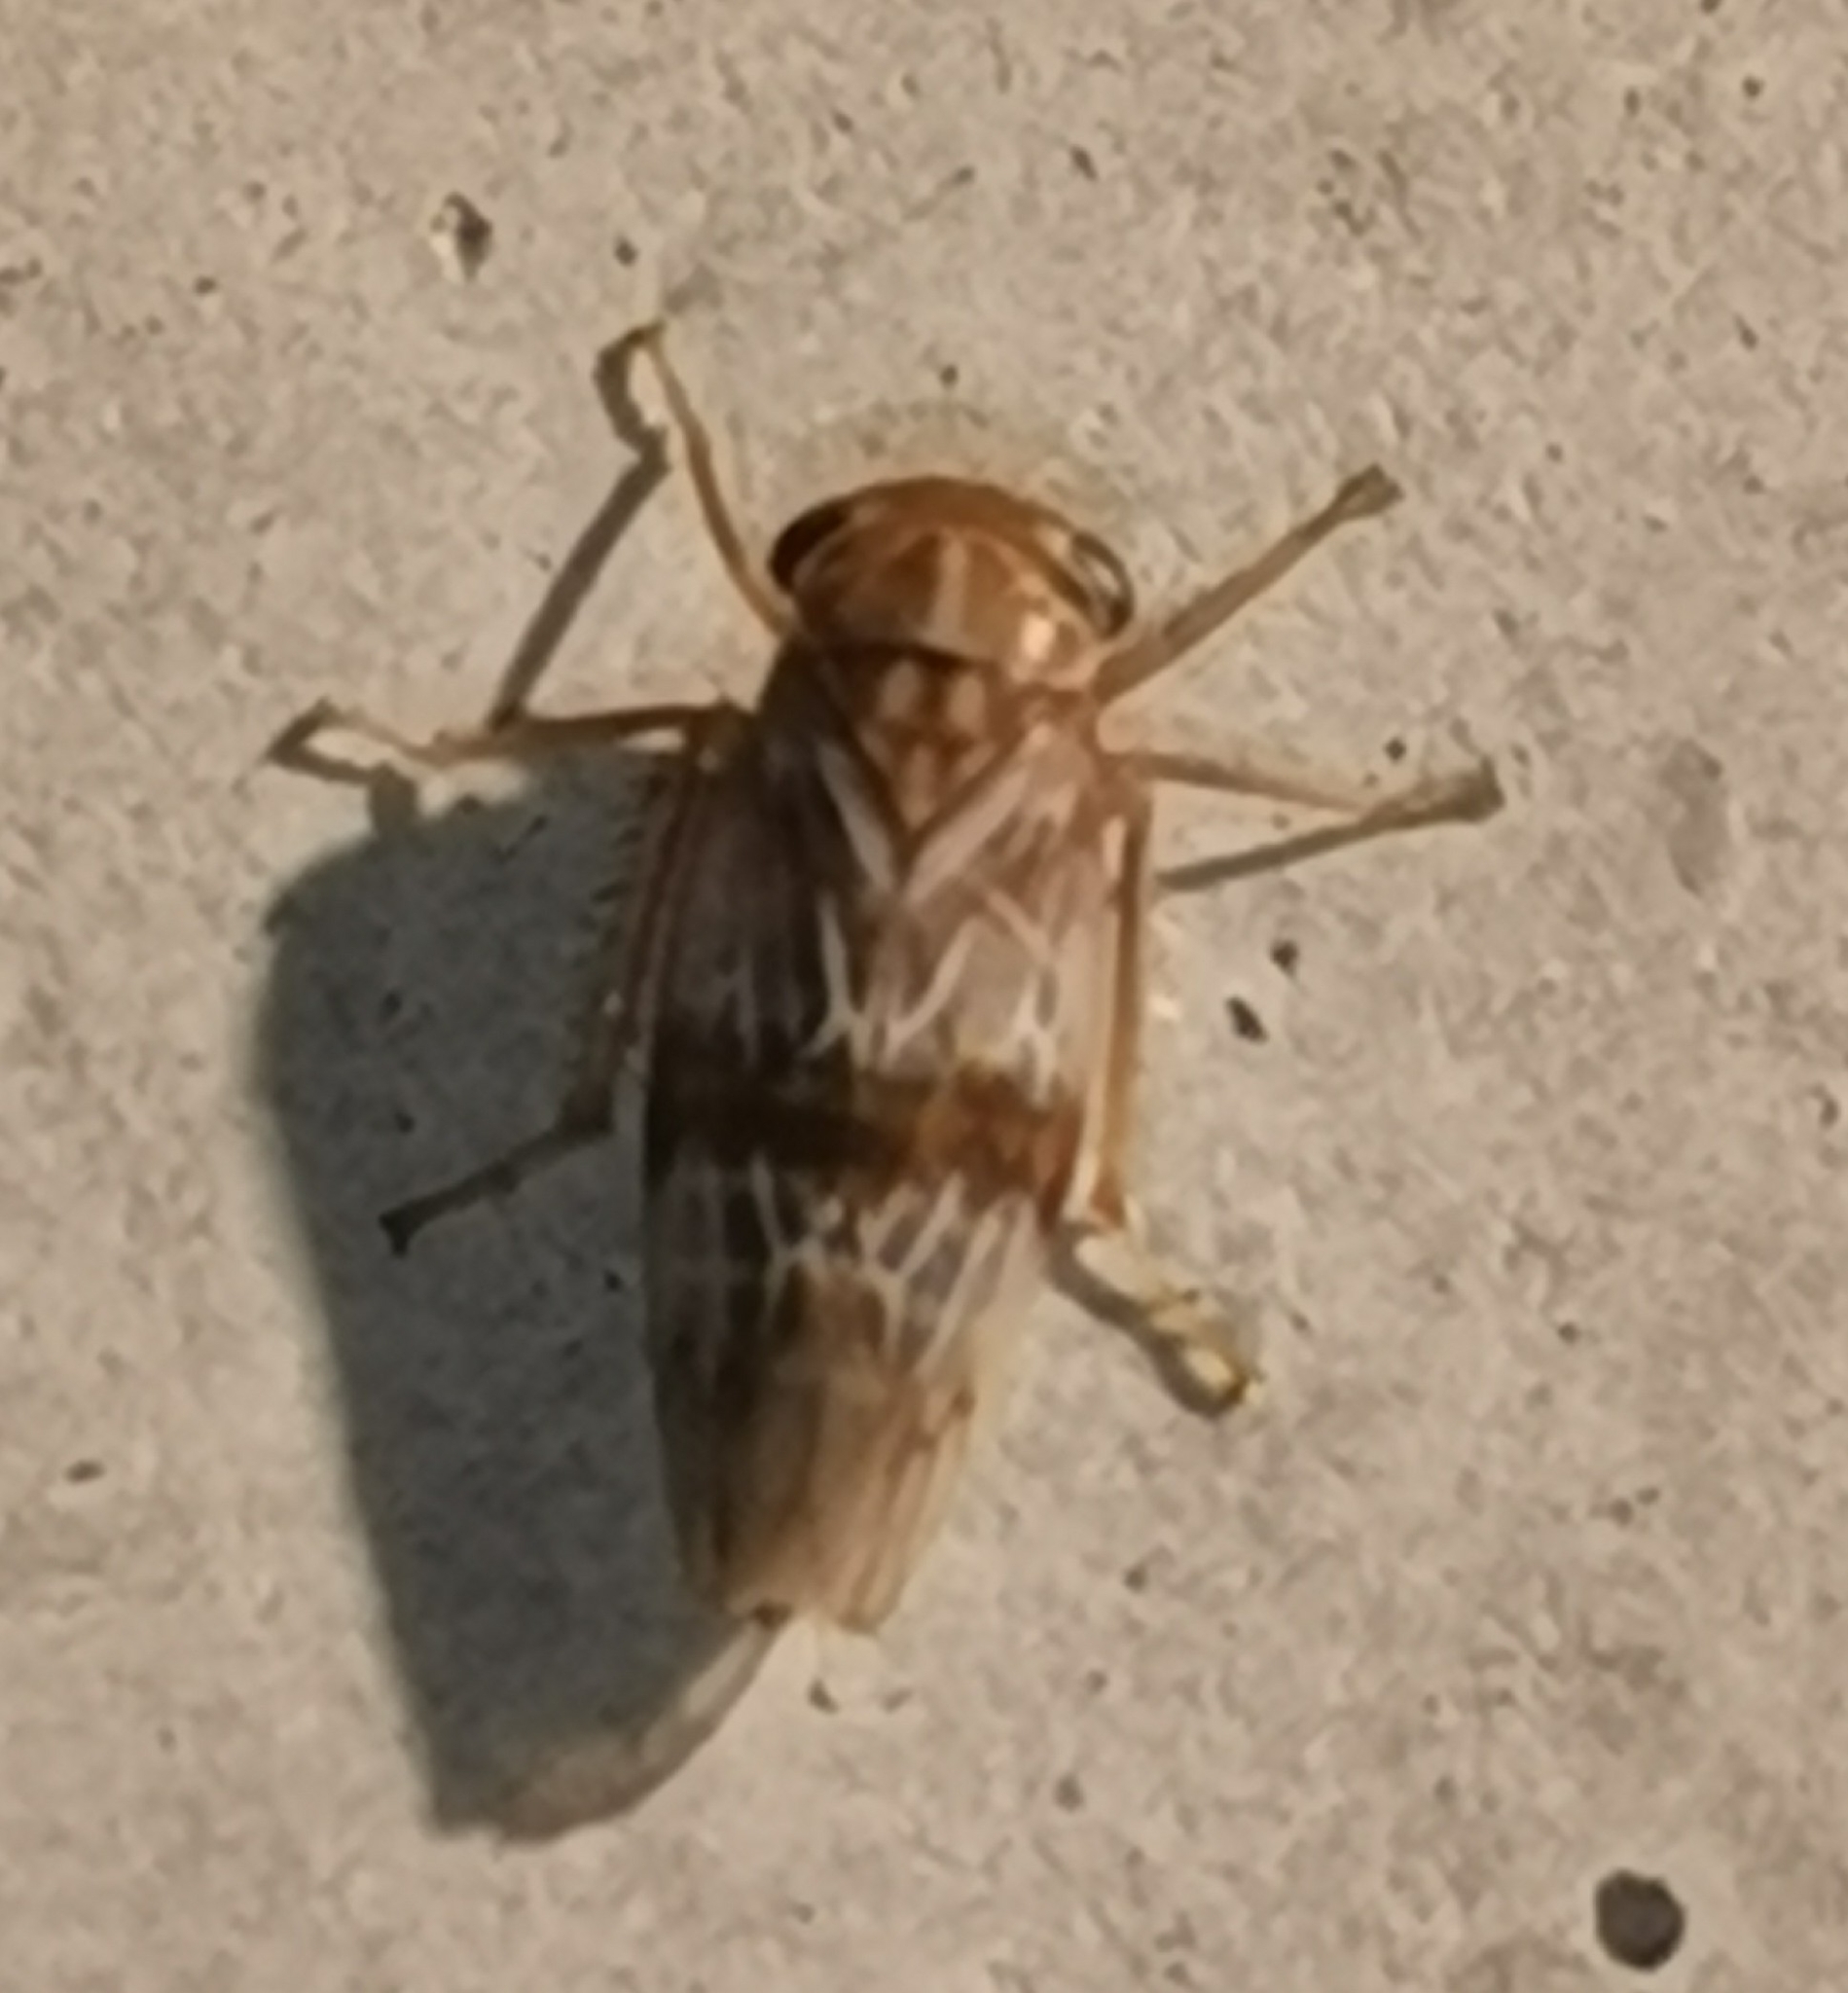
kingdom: Animalia
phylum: Arthropoda
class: Insecta
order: Hemiptera
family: Cicadellidae
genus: Tremulicerus
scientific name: Tremulicerus tremulae
